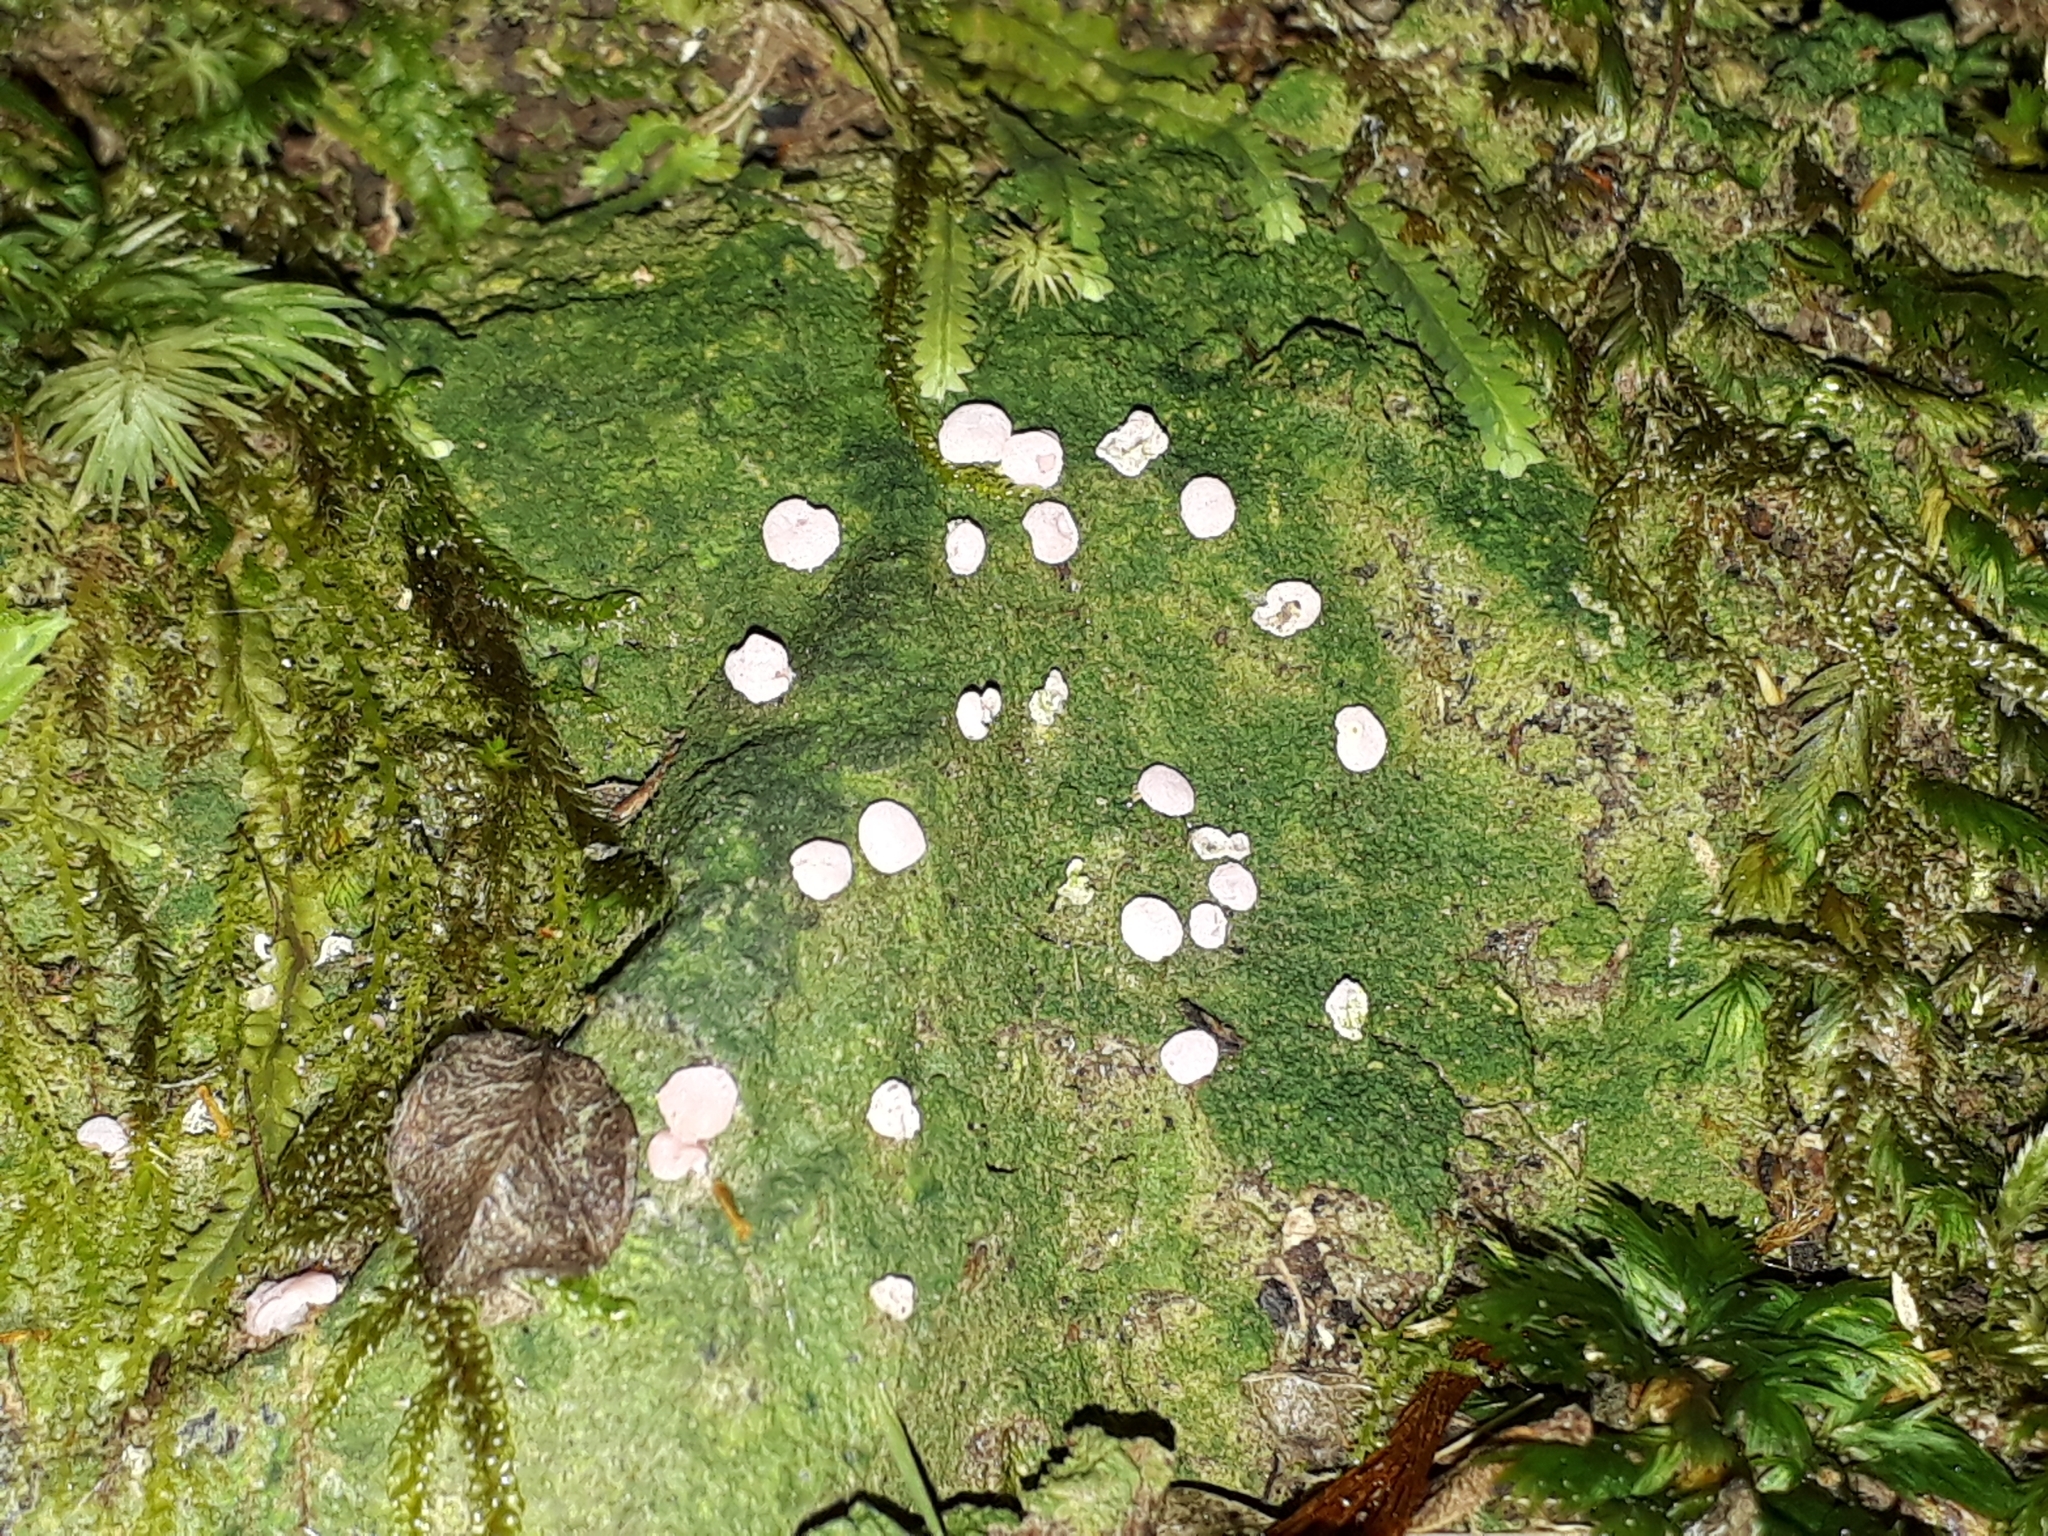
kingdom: Fungi
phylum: Ascomycota
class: Lecanoromycetes
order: Pertusariales
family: Icmadophilaceae
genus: Dibaeis
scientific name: Dibaeis absoluta
